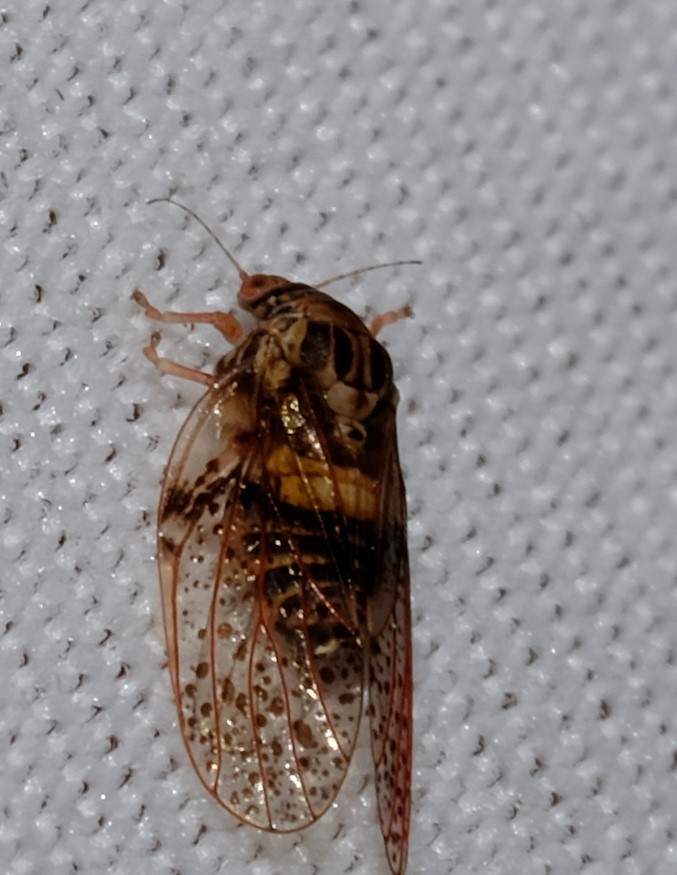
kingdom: Animalia
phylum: Arthropoda
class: Insecta
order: Hemiptera
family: Aphalaridae
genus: Creiis
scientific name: Creiis lituratus
